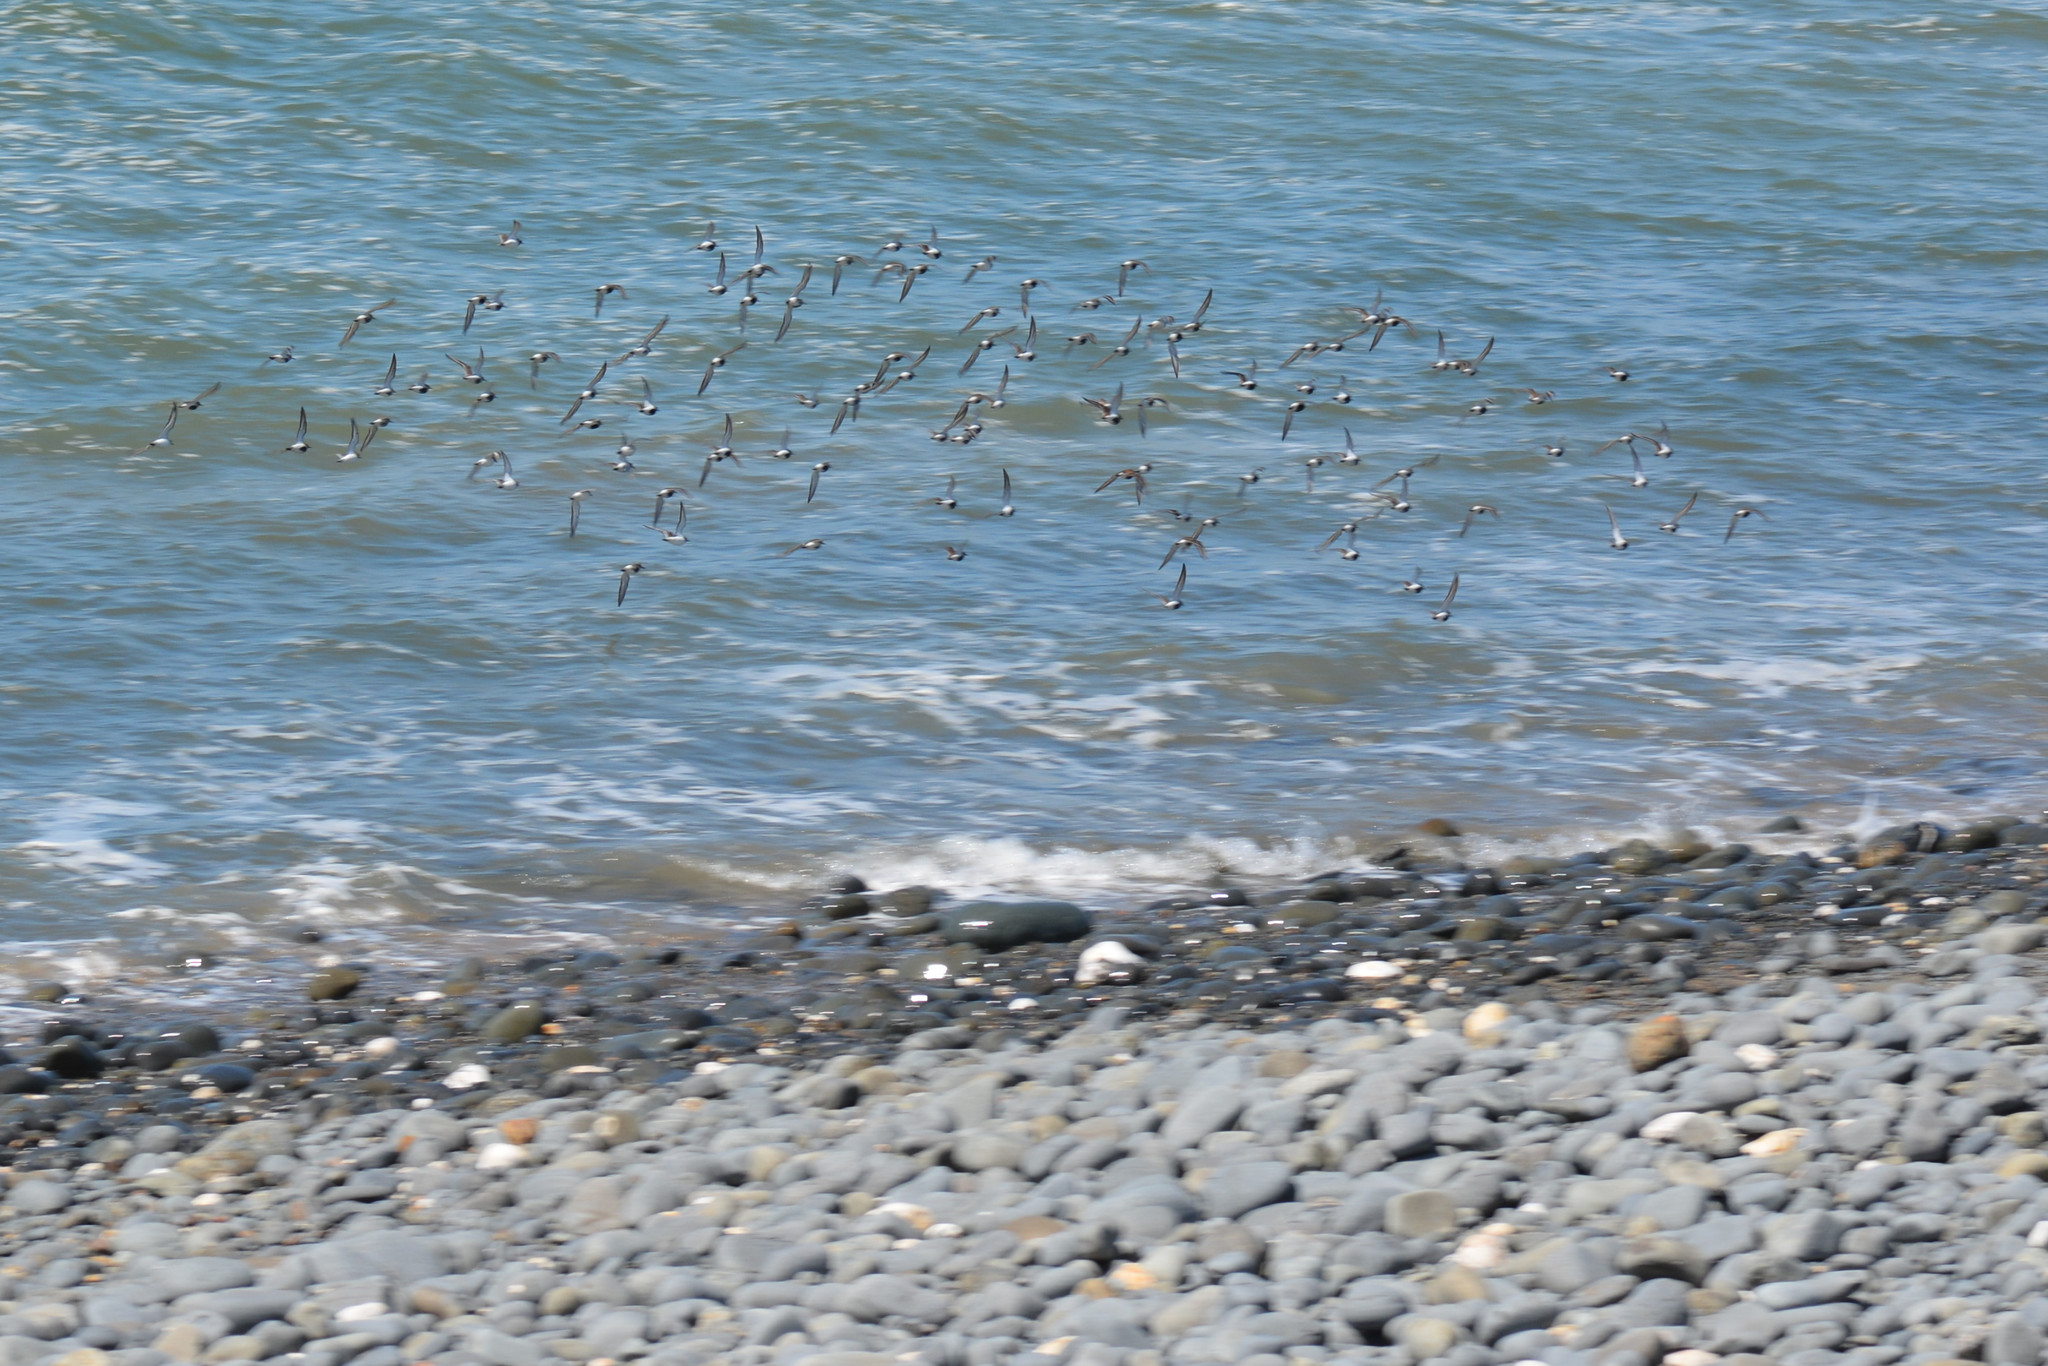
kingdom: Animalia
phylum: Chordata
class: Aves
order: Charadriiformes
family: Scolopacidae
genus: Calidris
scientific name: Calidris alpina
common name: Dunlin
